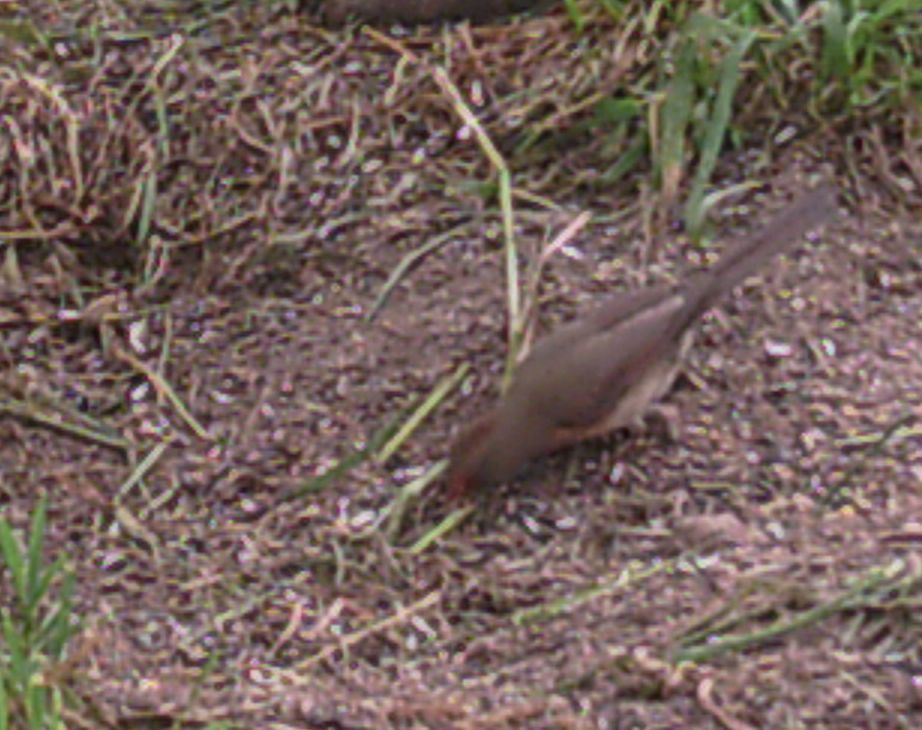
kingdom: Animalia
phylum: Chordata
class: Aves
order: Passeriformes
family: Cardinalidae
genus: Cardinalis
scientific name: Cardinalis cardinalis
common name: Northern cardinal
